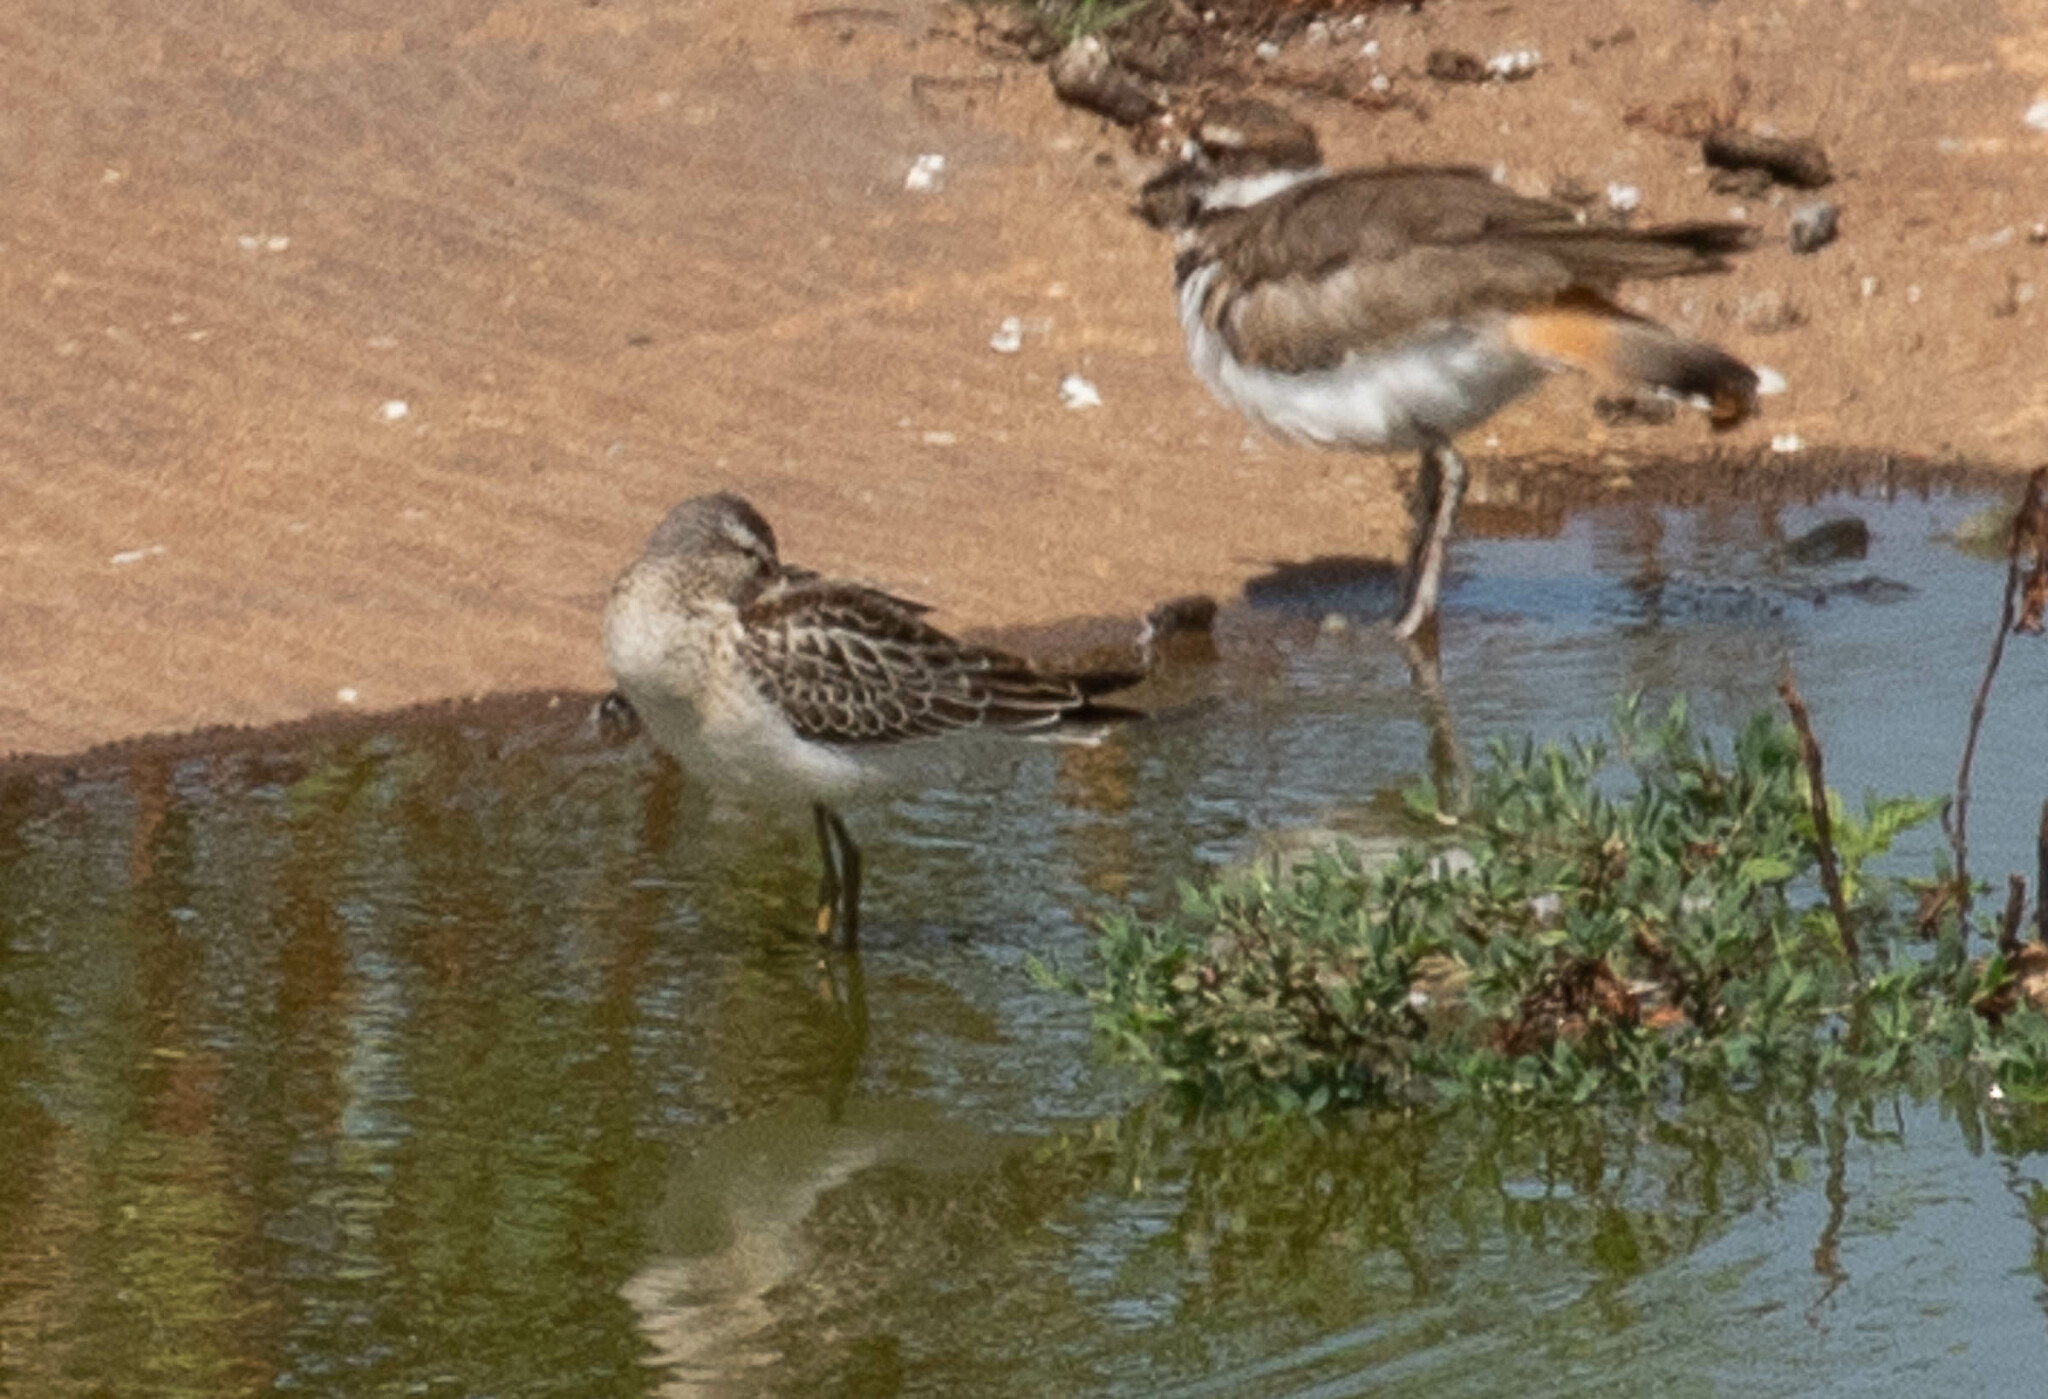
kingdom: Animalia
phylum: Chordata
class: Aves
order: Charadriiformes
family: Charadriidae
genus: Charadrius
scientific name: Charadrius vociferus
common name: Killdeer
